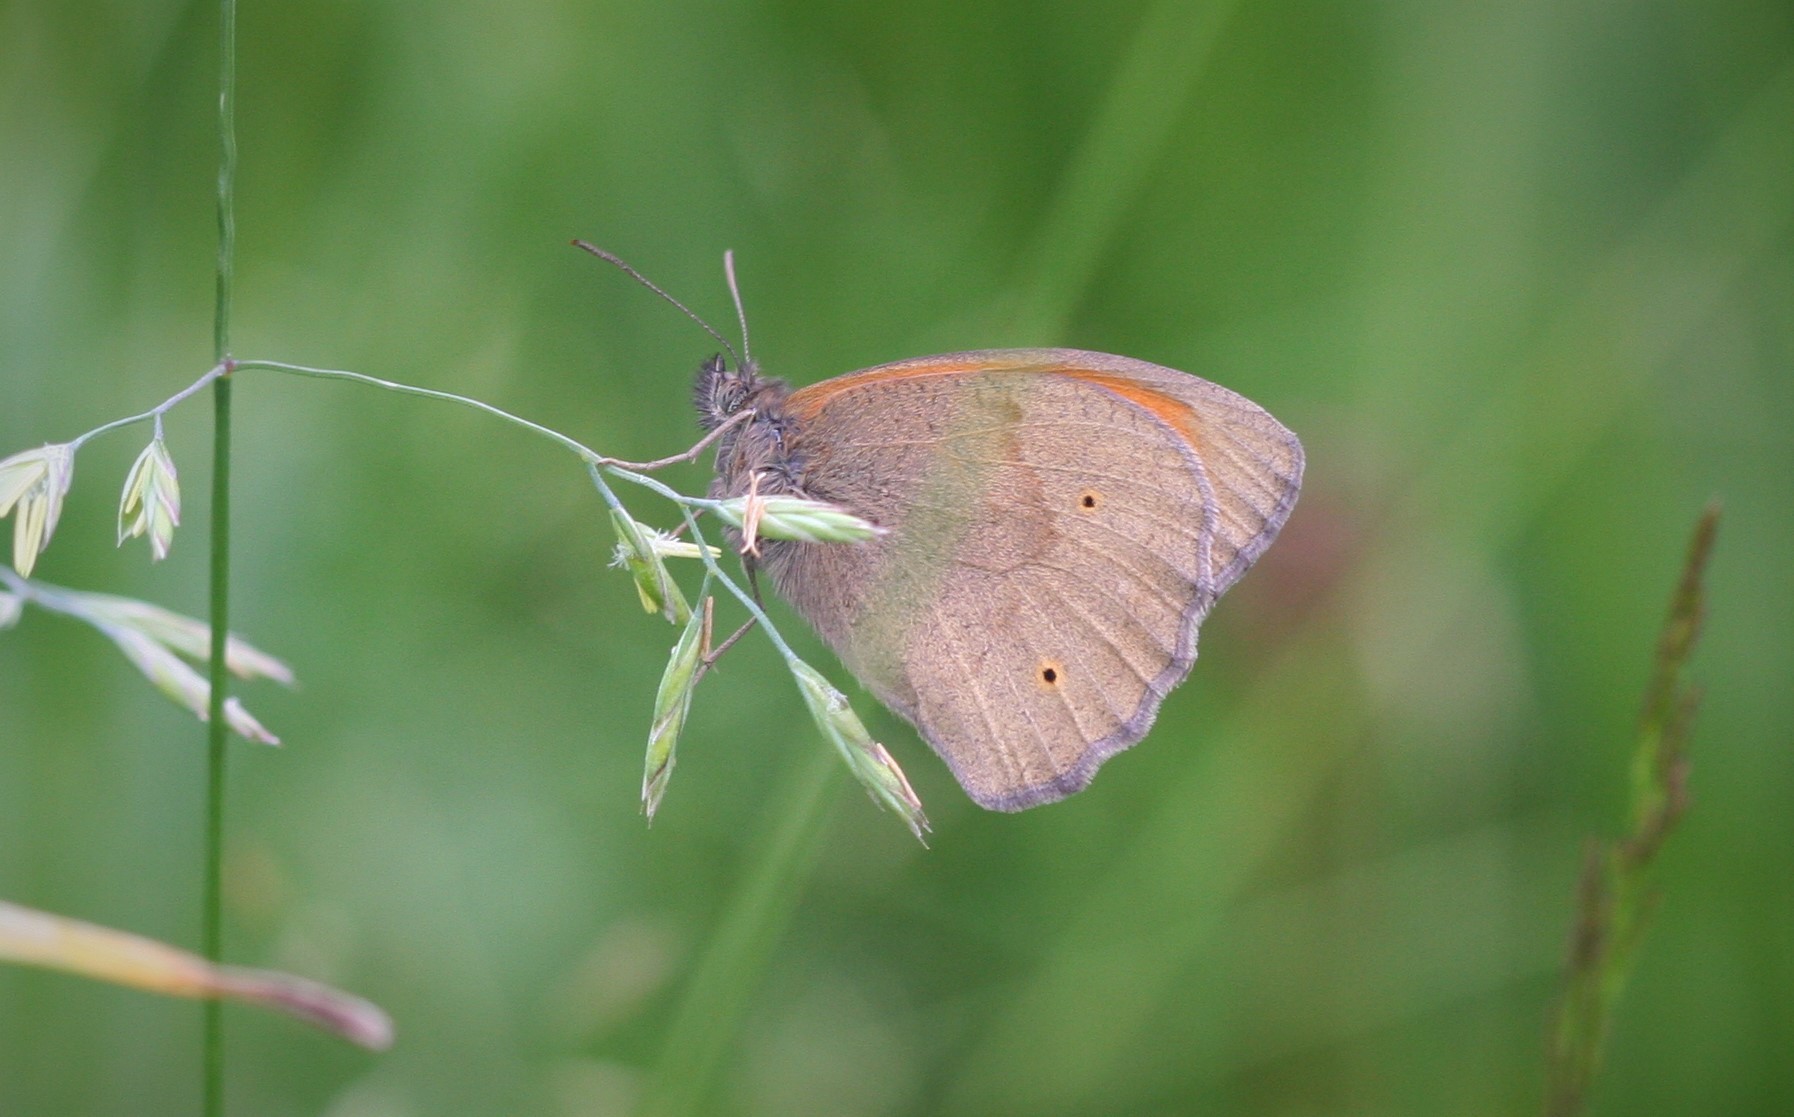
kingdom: Animalia
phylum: Arthropoda
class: Insecta
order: Lepidoptera
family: Nymphalidae
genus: Maniola
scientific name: Maniola jurtina
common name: Meadow brown
